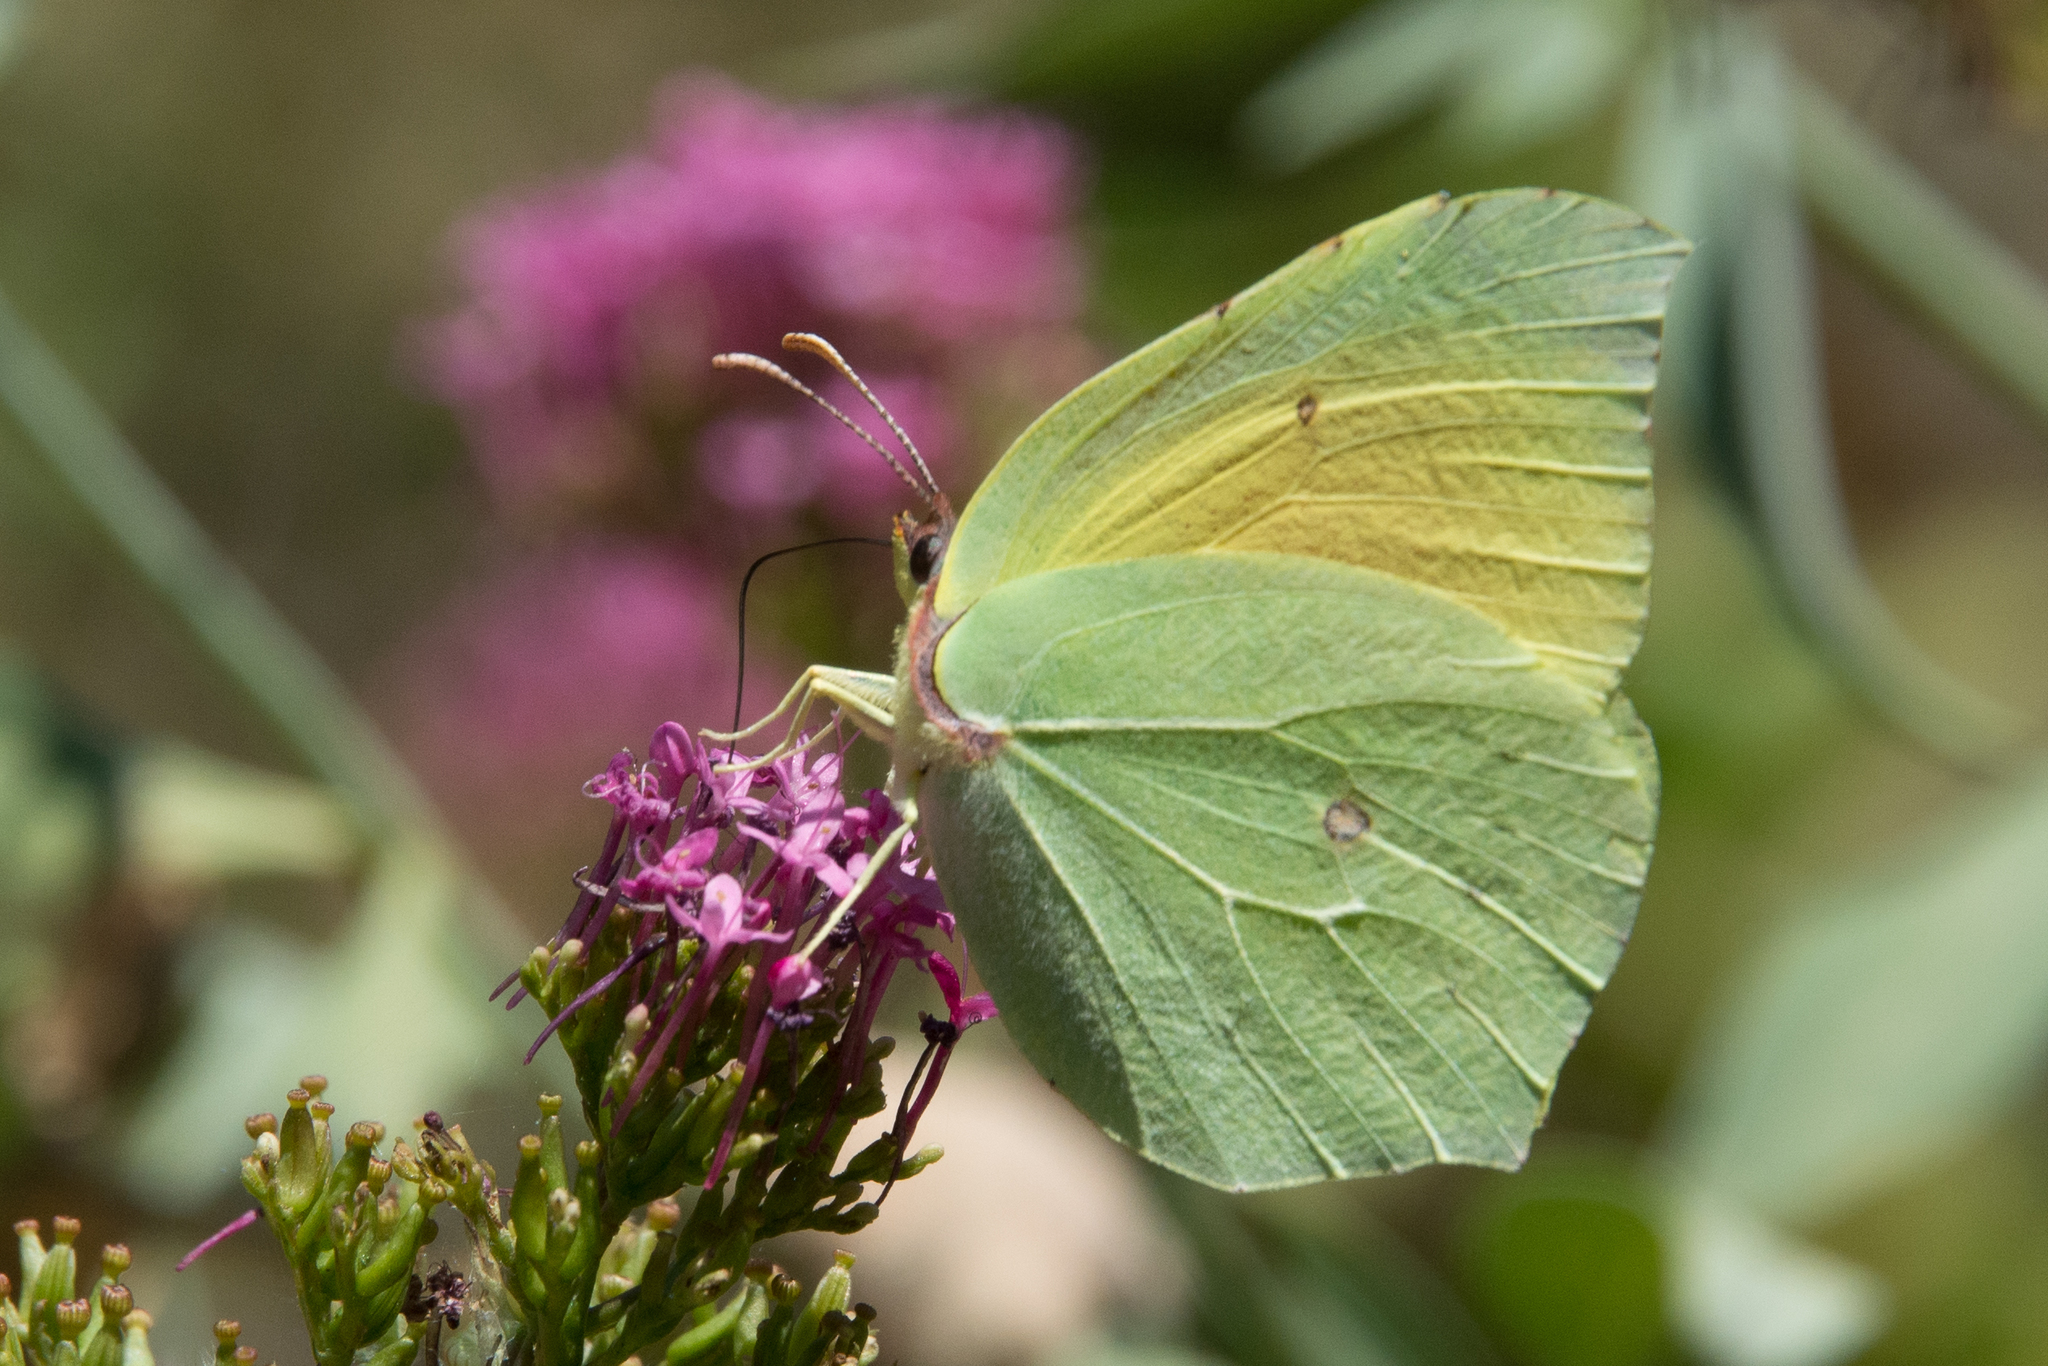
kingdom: Animalia
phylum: Arthropoda
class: Insecta
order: Lepidoptera
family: Pieridae
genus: Gonepteryx
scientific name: Gonepteryx cleopatra
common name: Cleopatra
